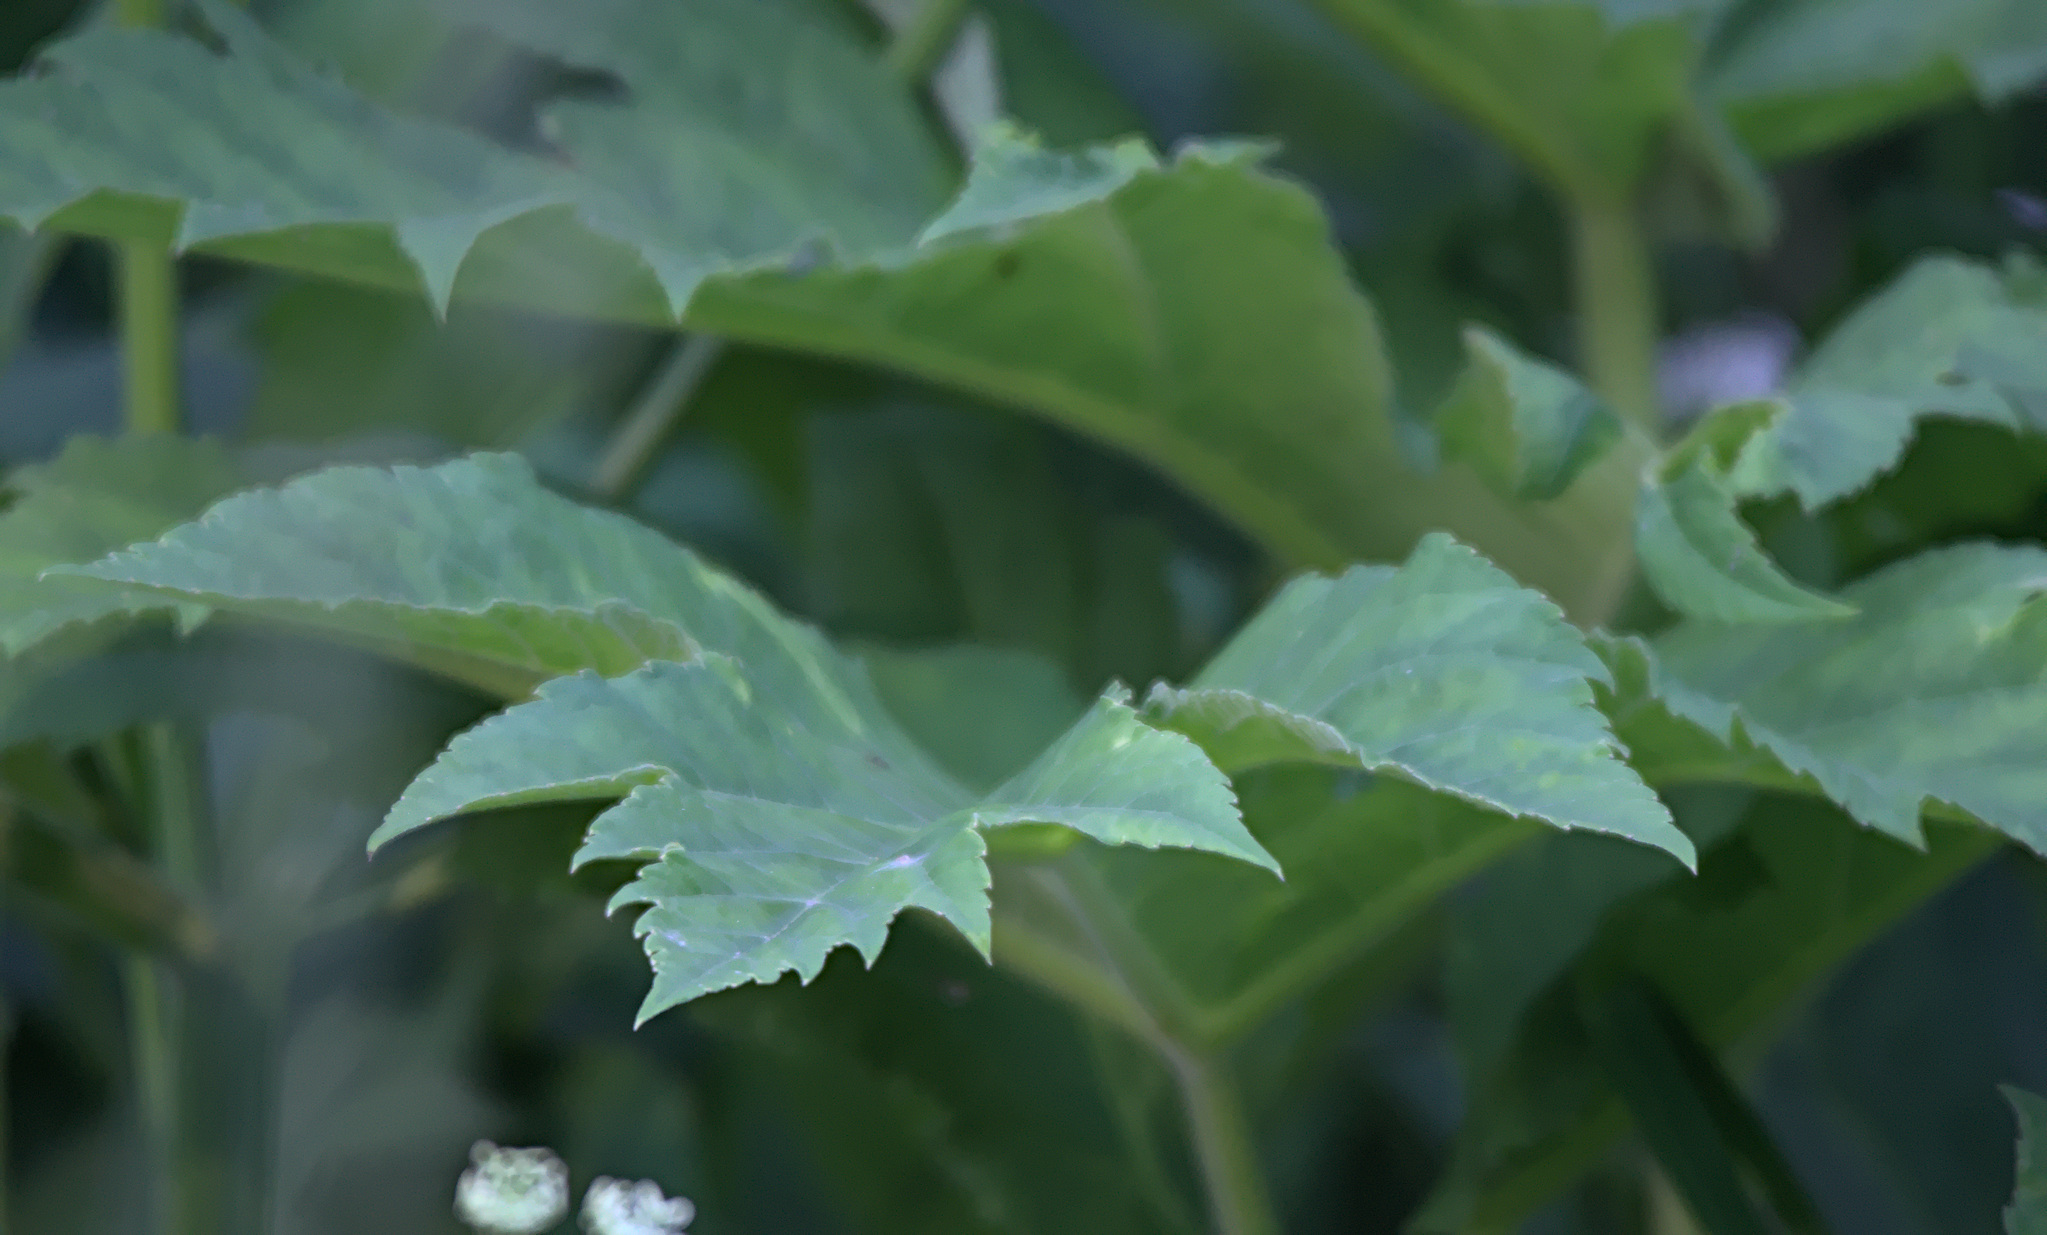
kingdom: Plantae
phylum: Tracheophyta
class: Magnoliopsida
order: Apiales
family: Apiaceae
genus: Heracleum
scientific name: Heracleum dissectum
